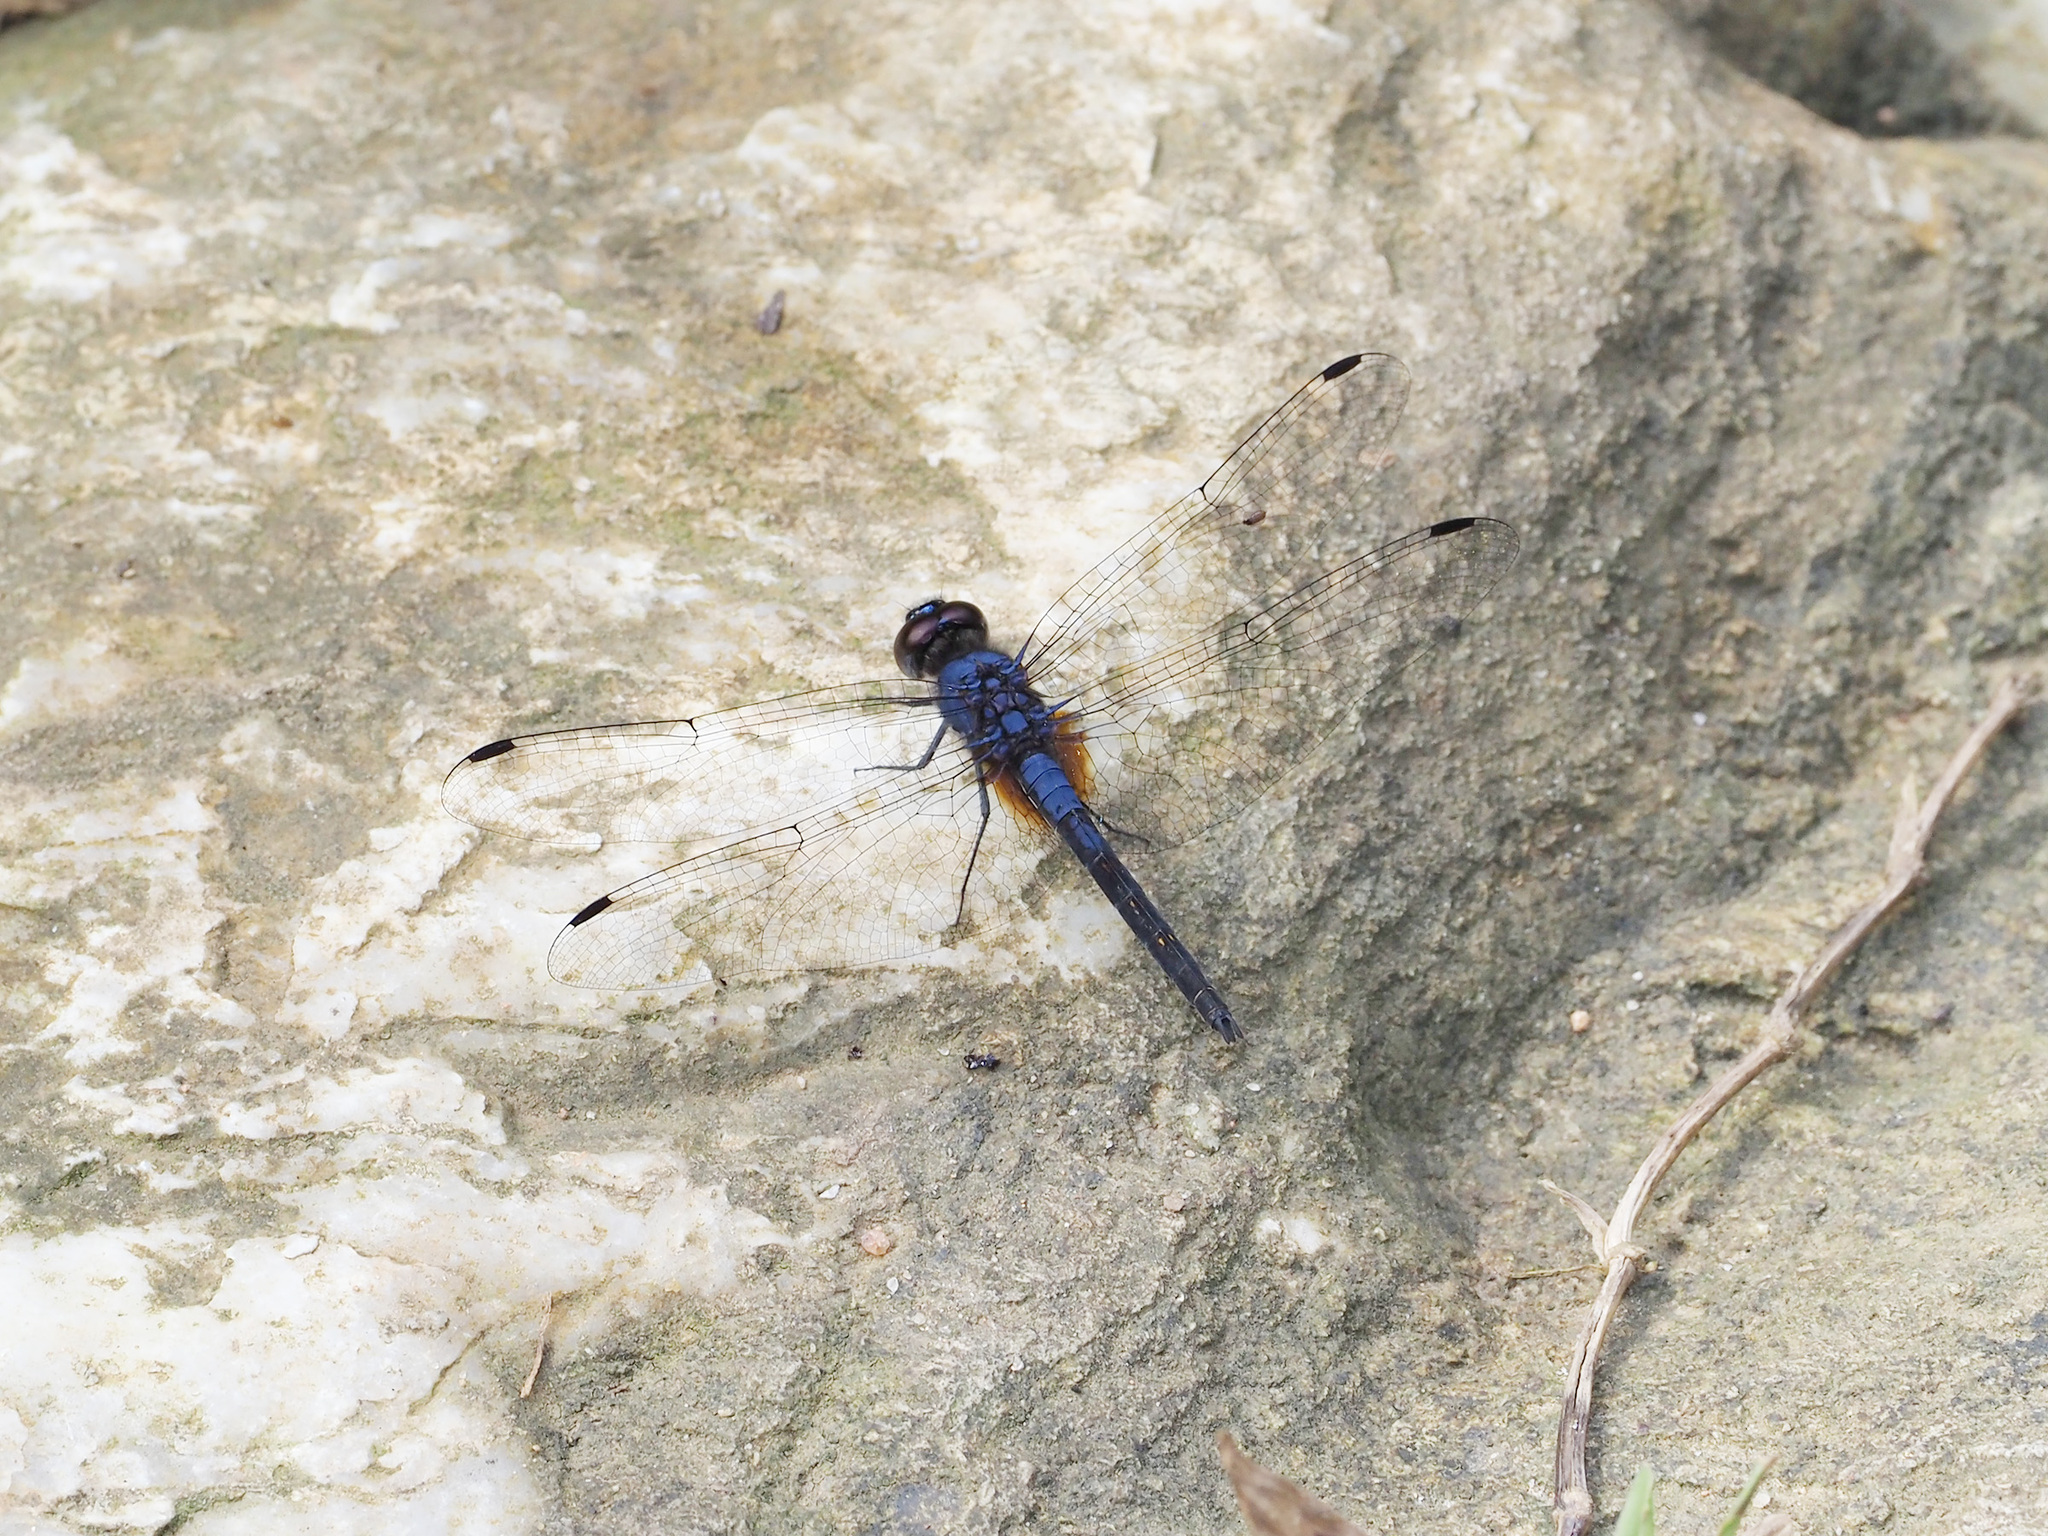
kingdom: Animalia
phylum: Arthropoda
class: Insecta
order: Odonata
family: Libellulidae
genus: Trithemis
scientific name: Trithemis festiva
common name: Indigo dropwing
